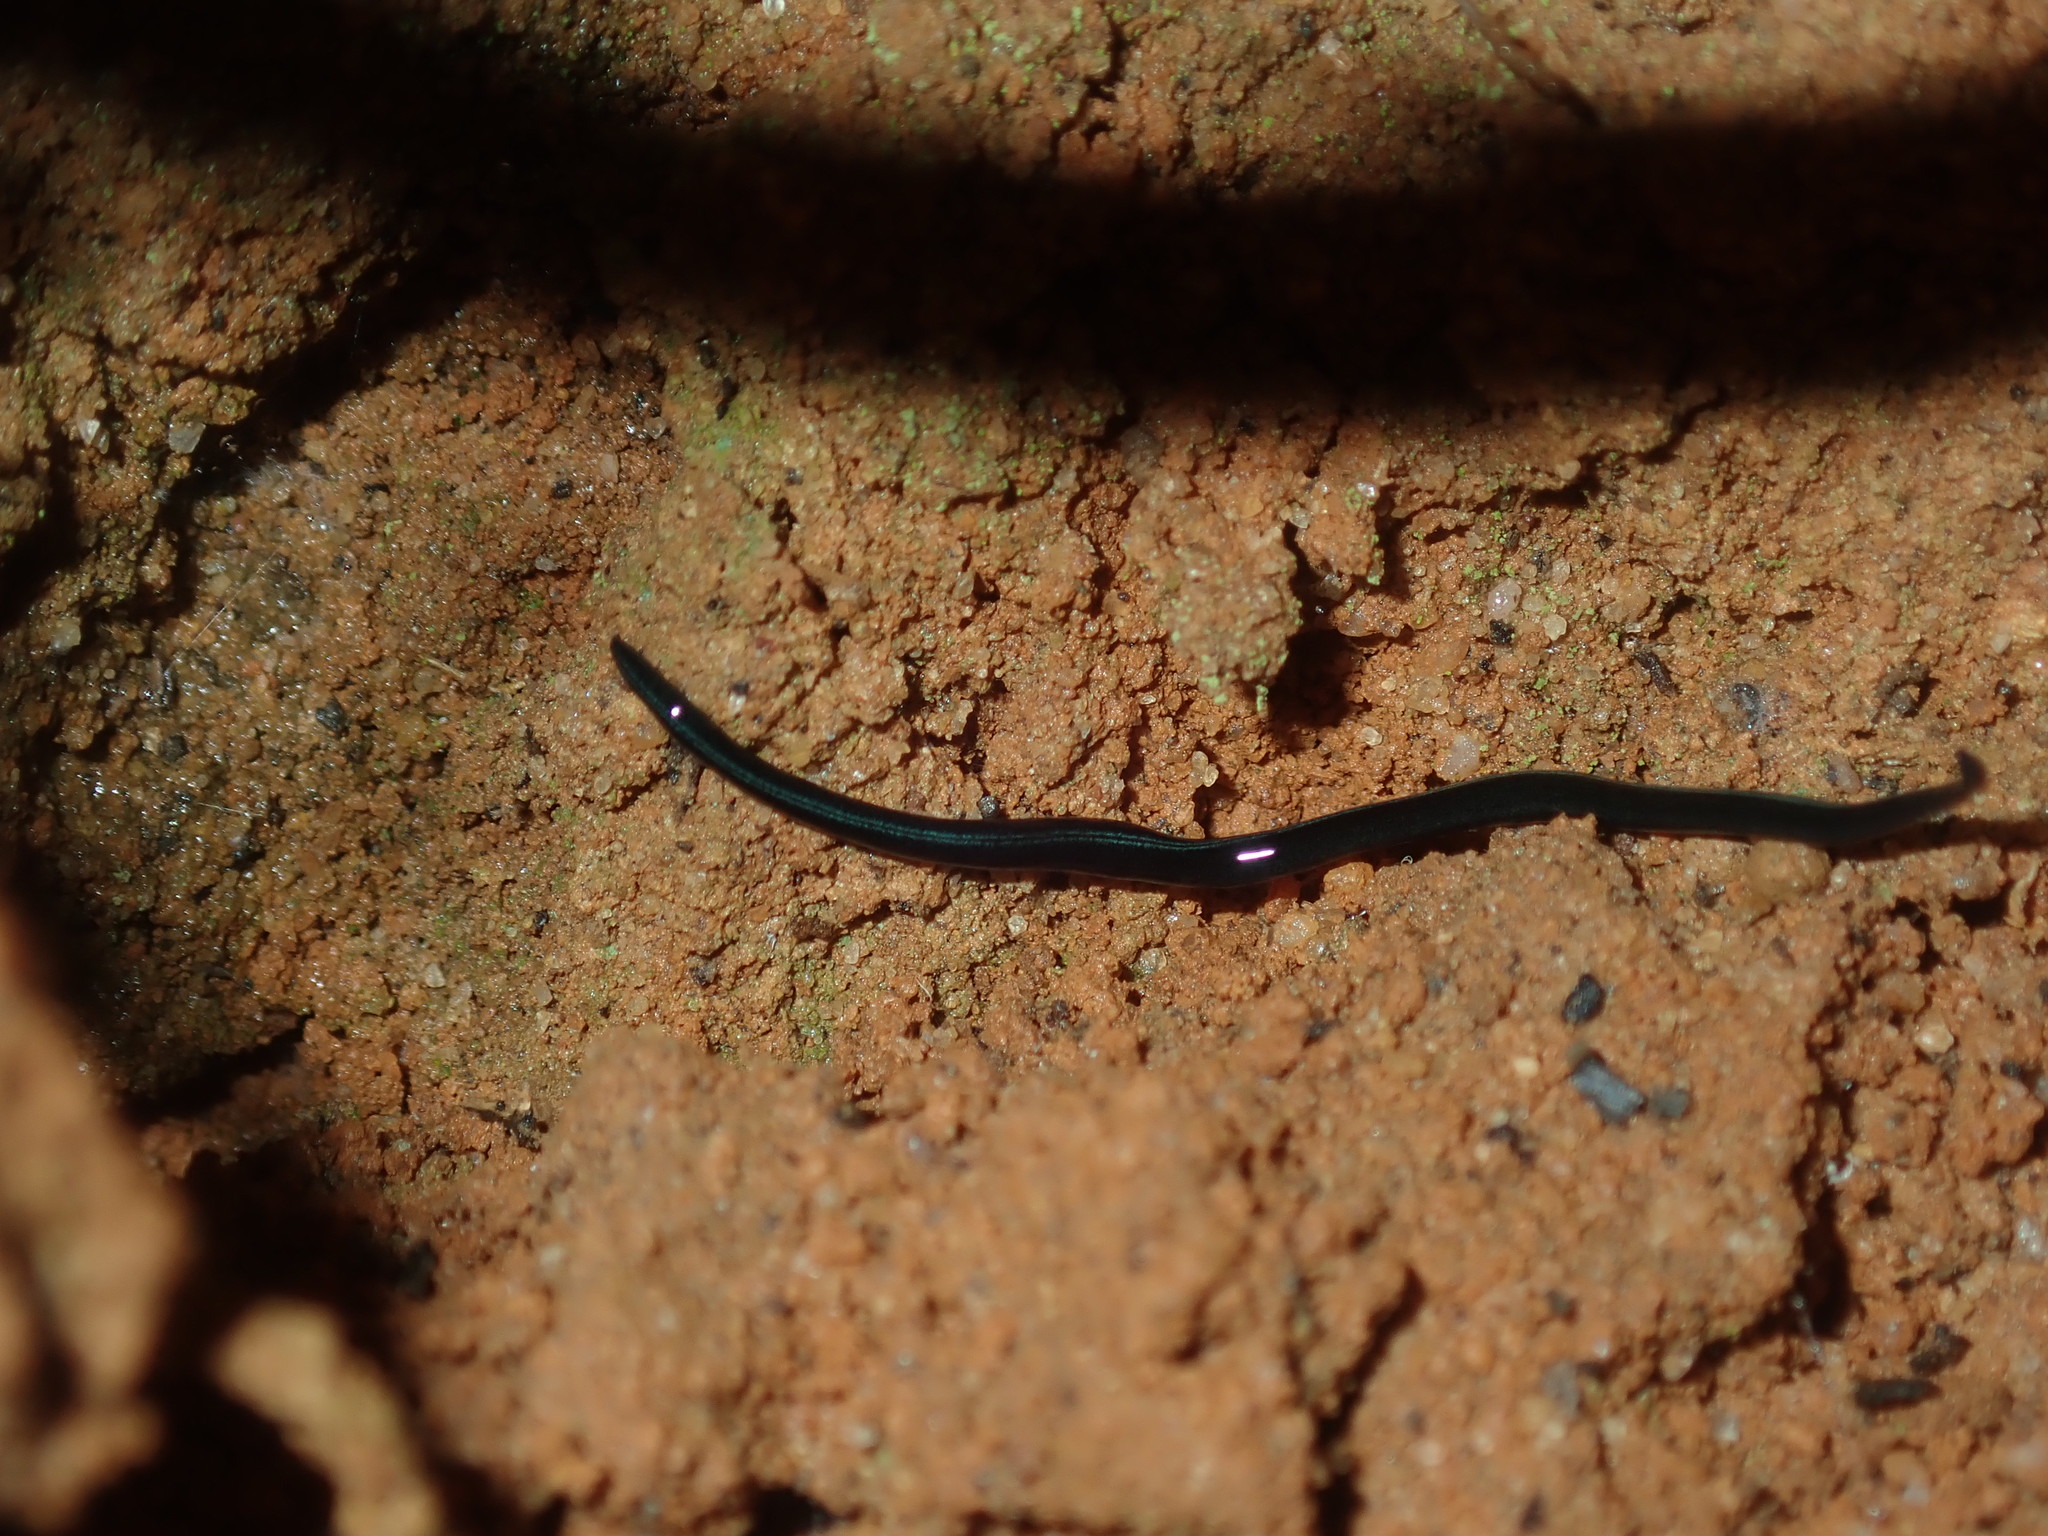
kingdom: Animalia
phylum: Platyhelminthes
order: Tricladida
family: Geoplanidae
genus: Kontikia
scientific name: Kontikia coxii
